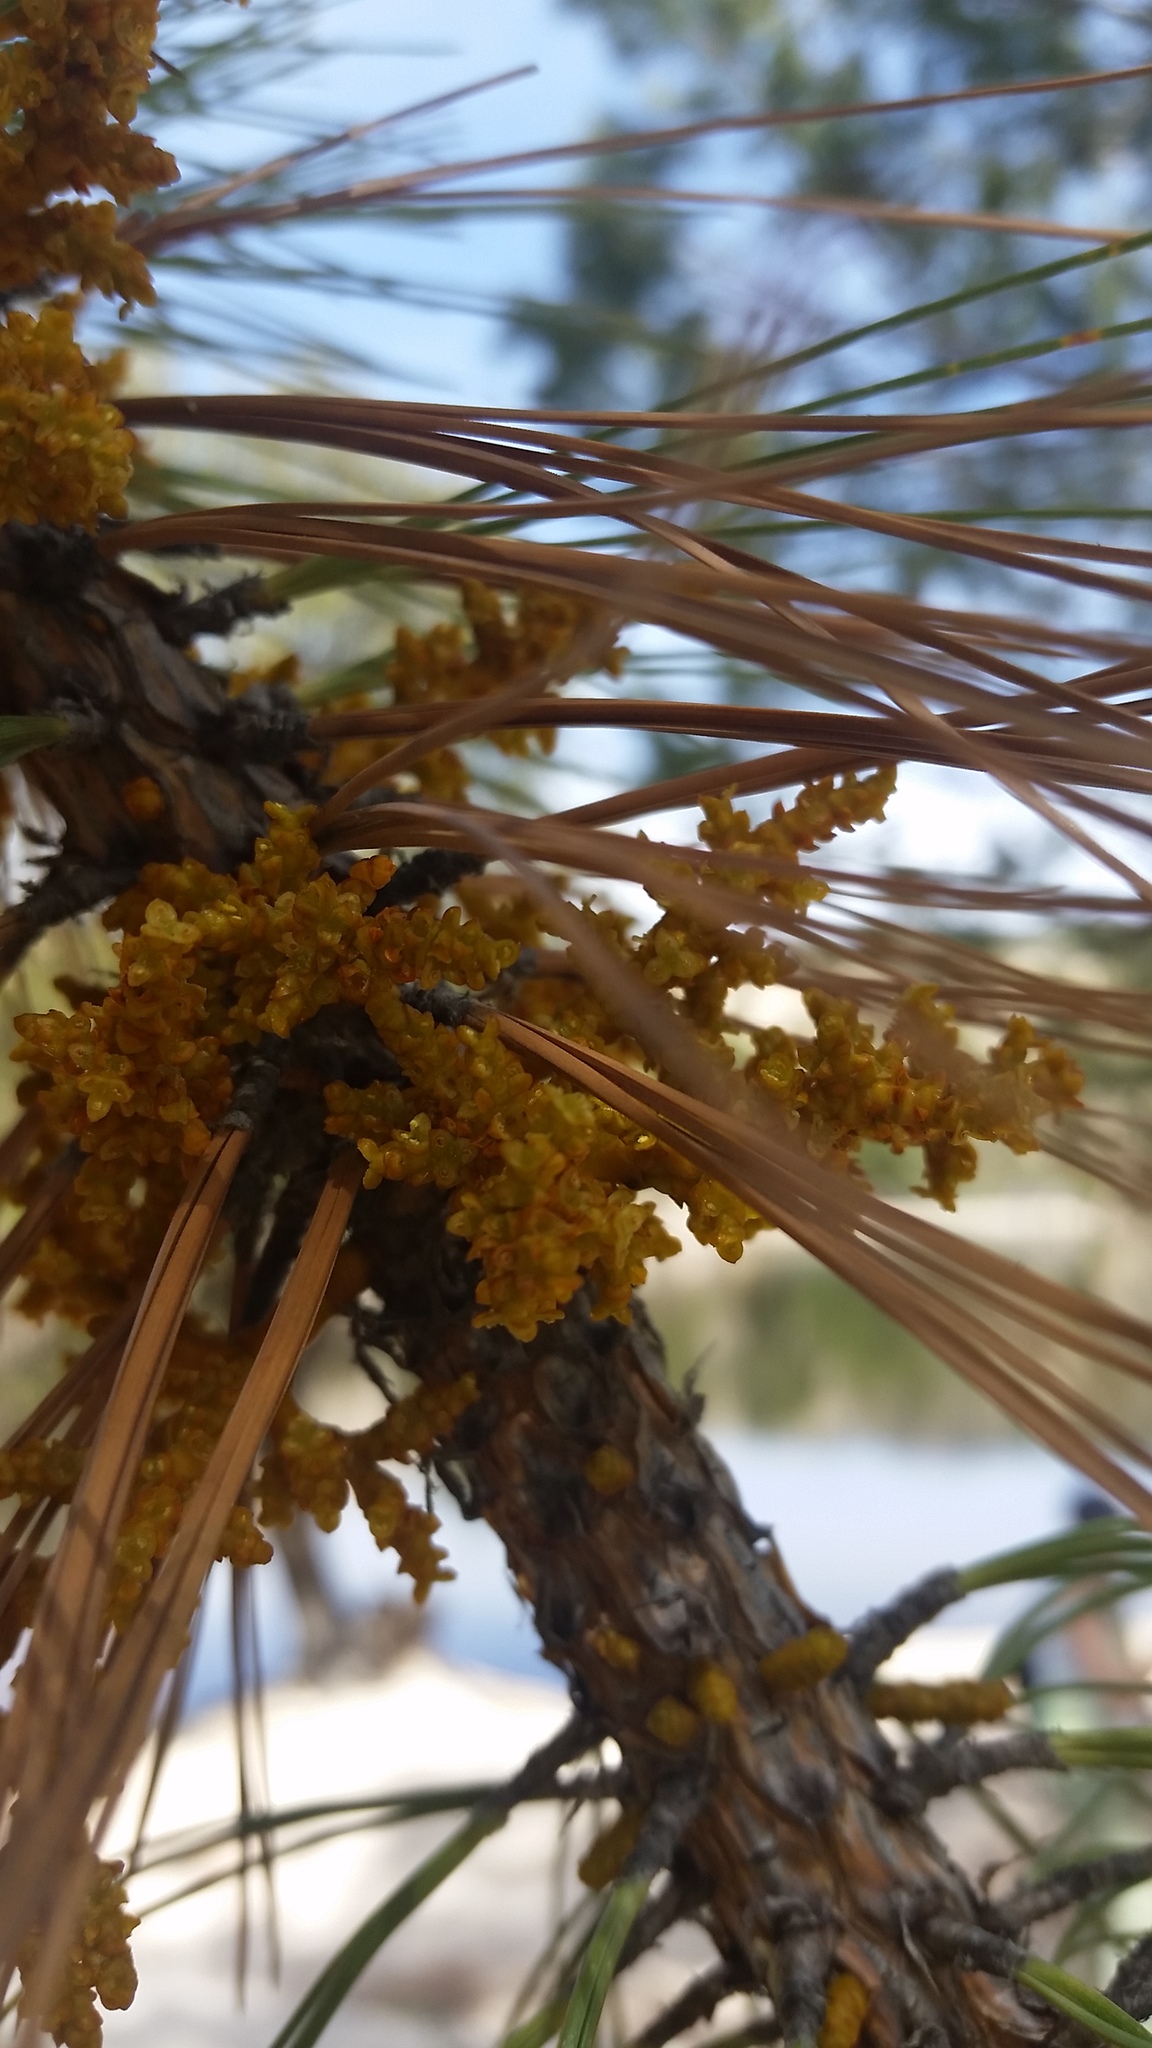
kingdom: Plantae
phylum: Tracheophyta
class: Magnoliopsida
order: Santalales
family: Viscaceae
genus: Arceuthobium
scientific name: Arceuthobium vaginatum
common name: Southwestern dwarf-mistletoe
